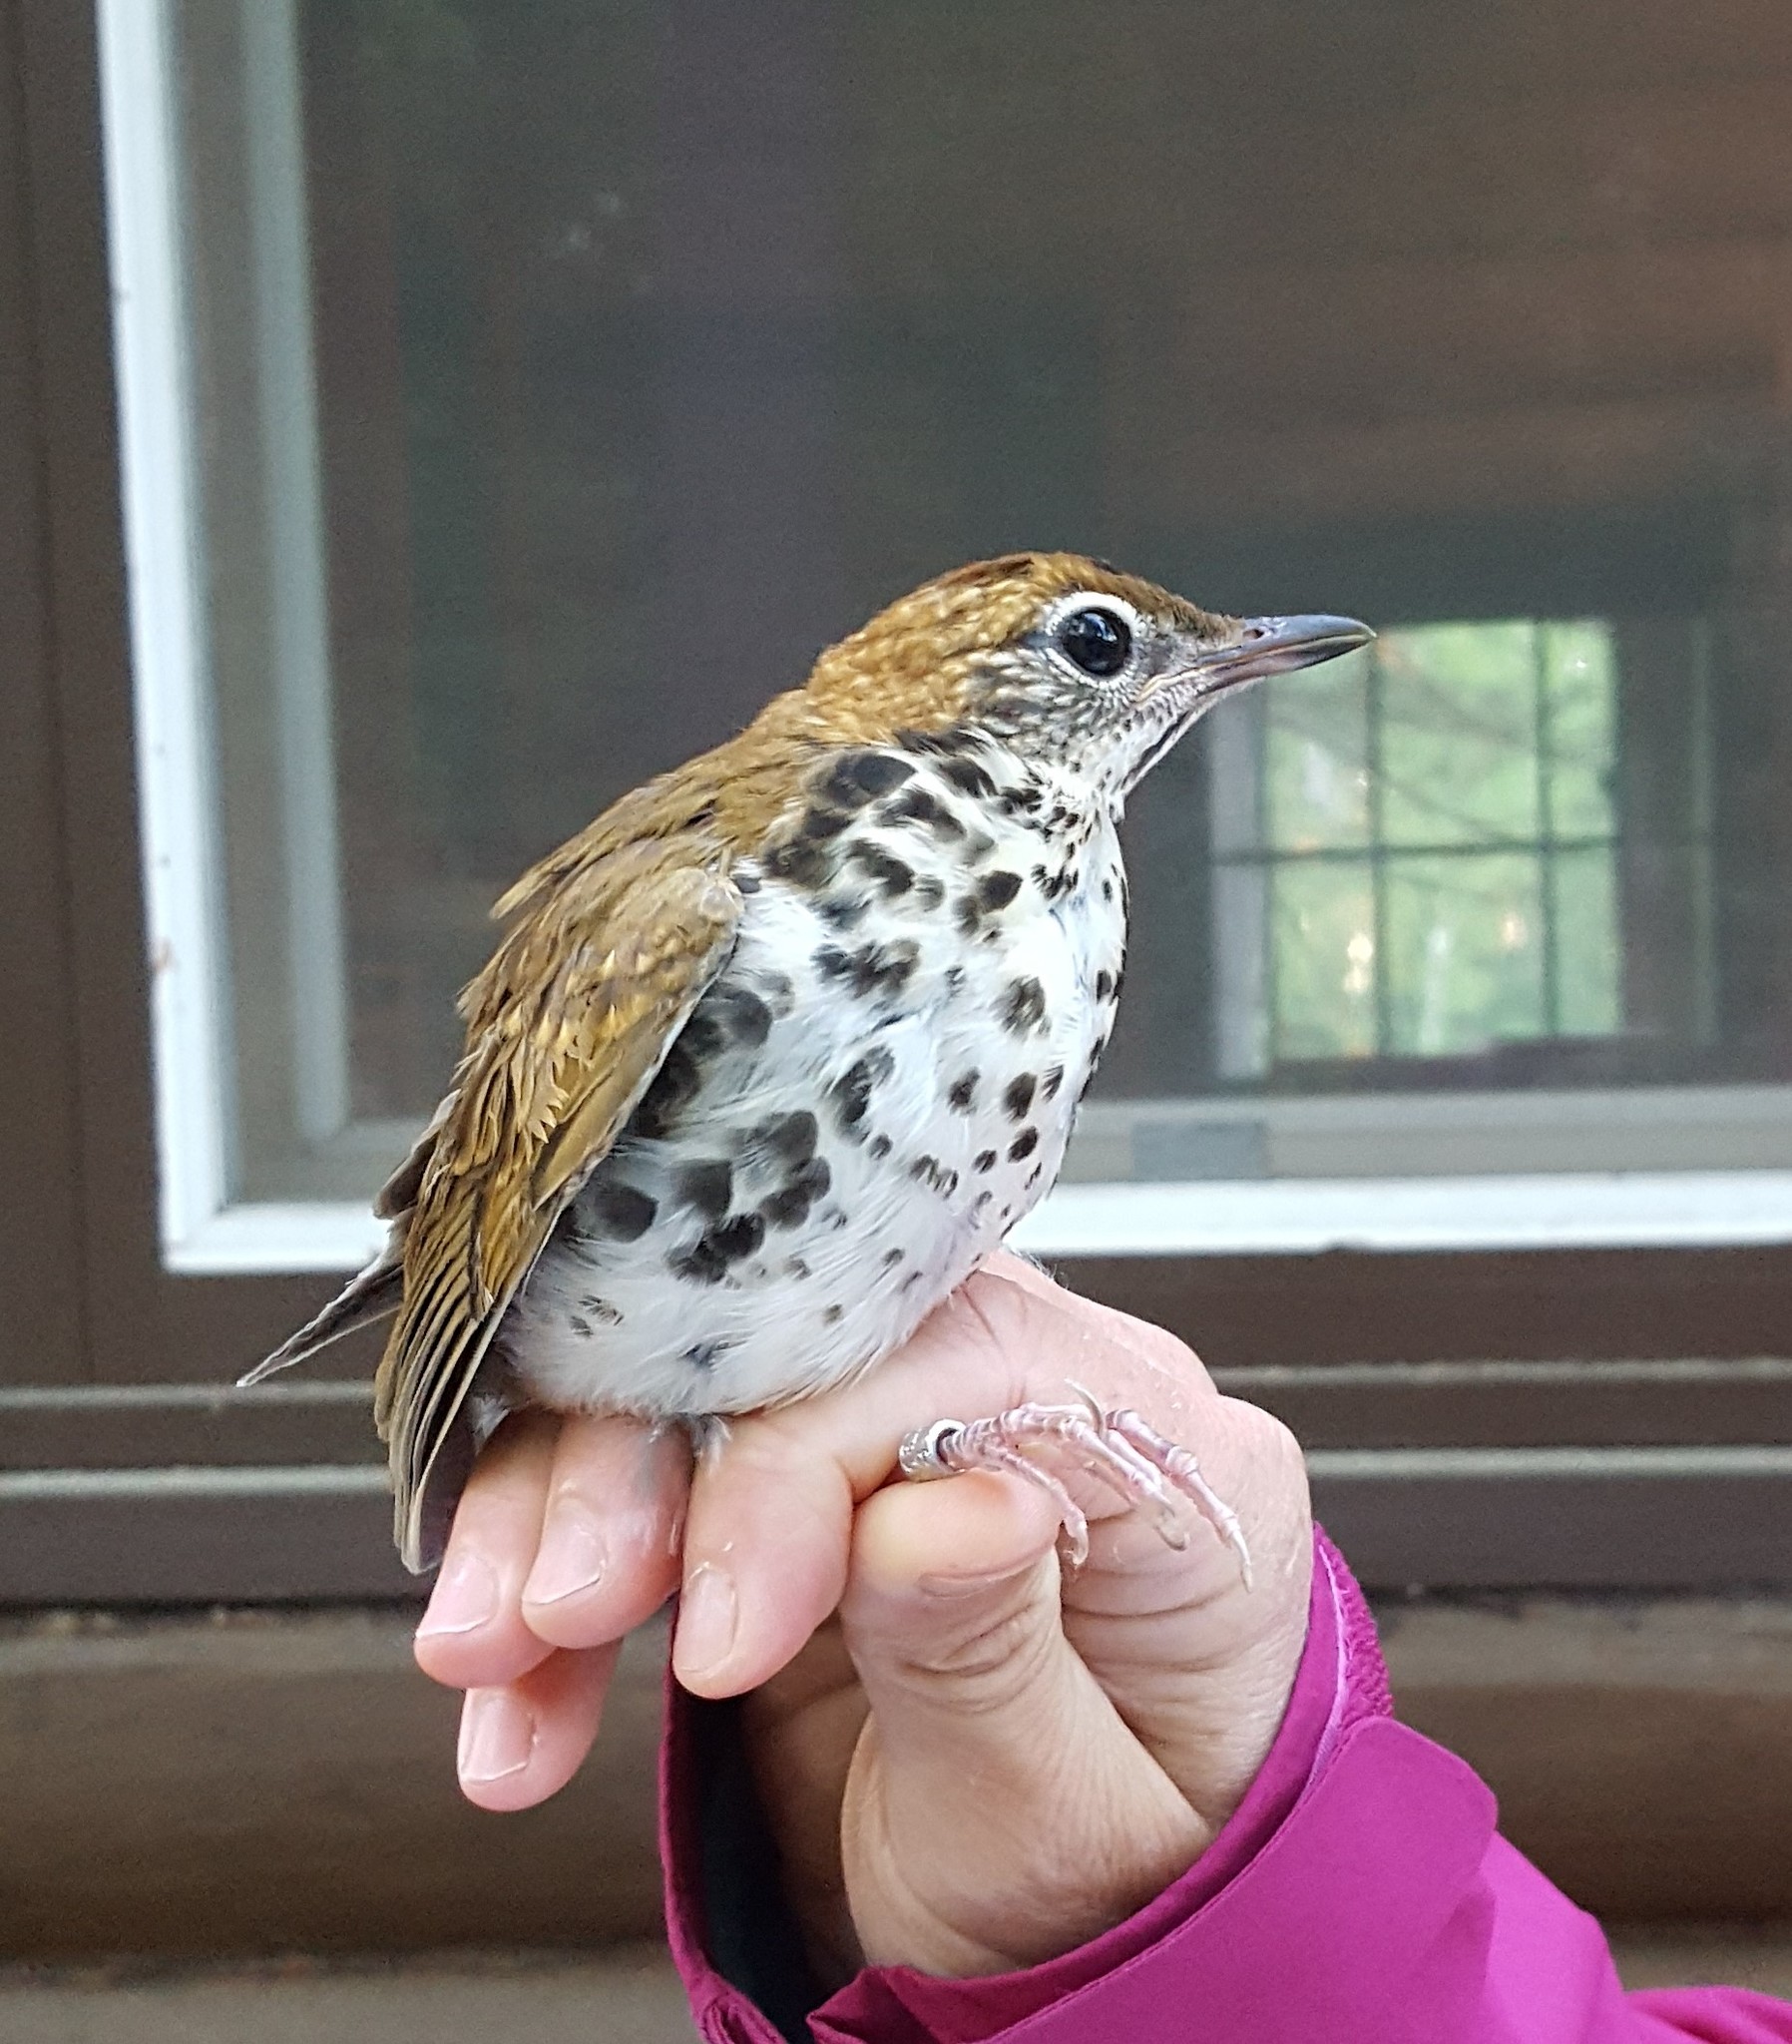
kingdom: Animalia
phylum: Chordata
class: Aves
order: Passeriformes
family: Turdidae
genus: Hylocichla
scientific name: Hylocichla mustelina
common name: Wood thrush
